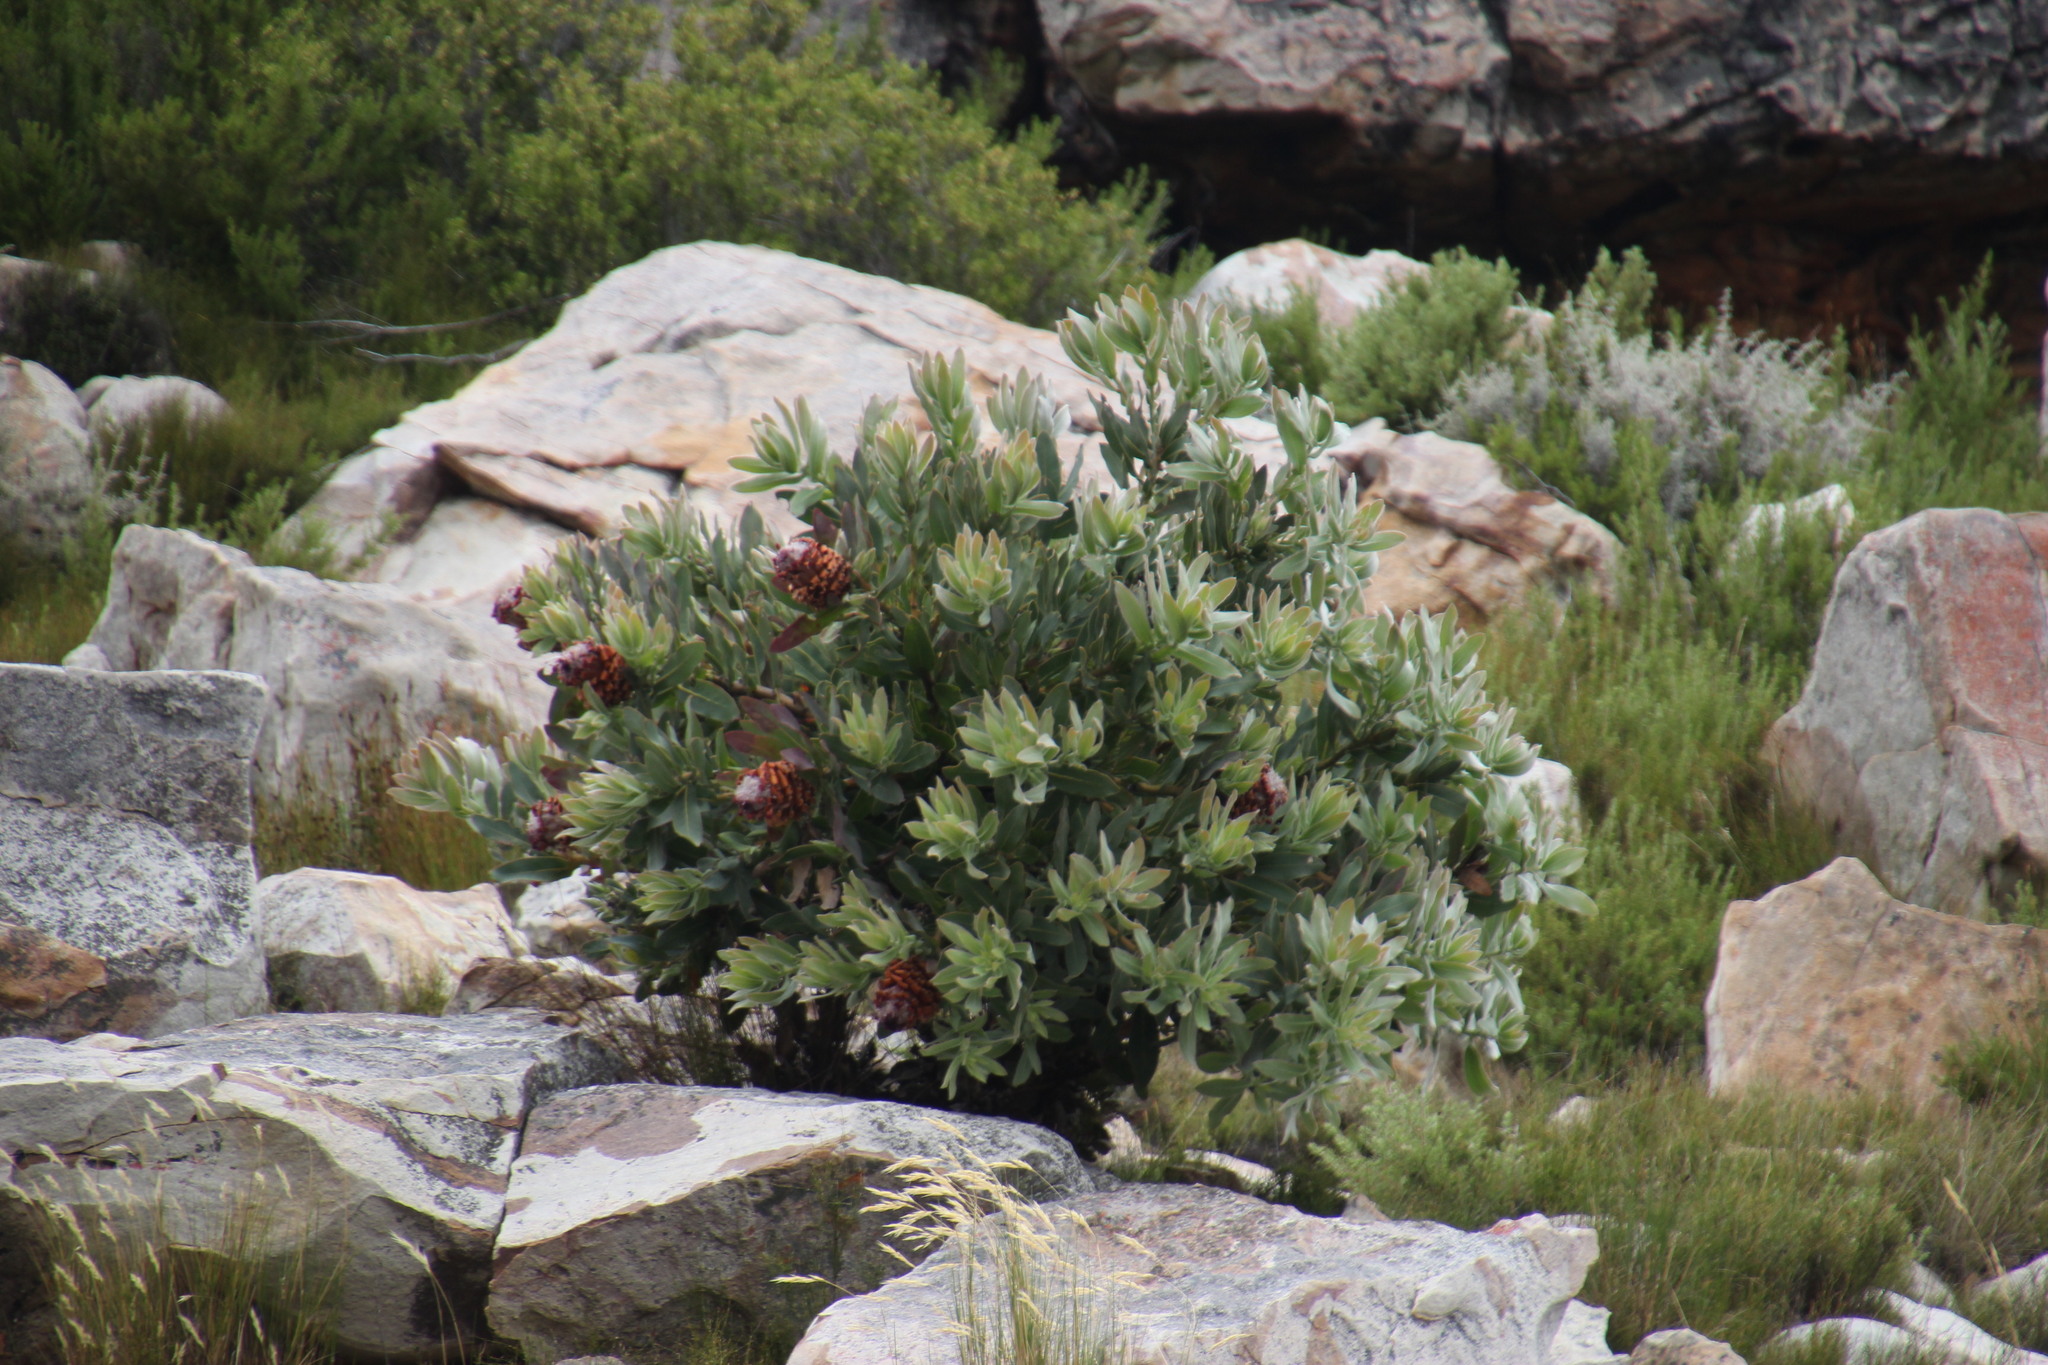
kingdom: Plantae
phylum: Tracheophyta
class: Magnoliopsida
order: Proteales
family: Proteaceae
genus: Protea
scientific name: Protea magnifica
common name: Bearded sugarbush
